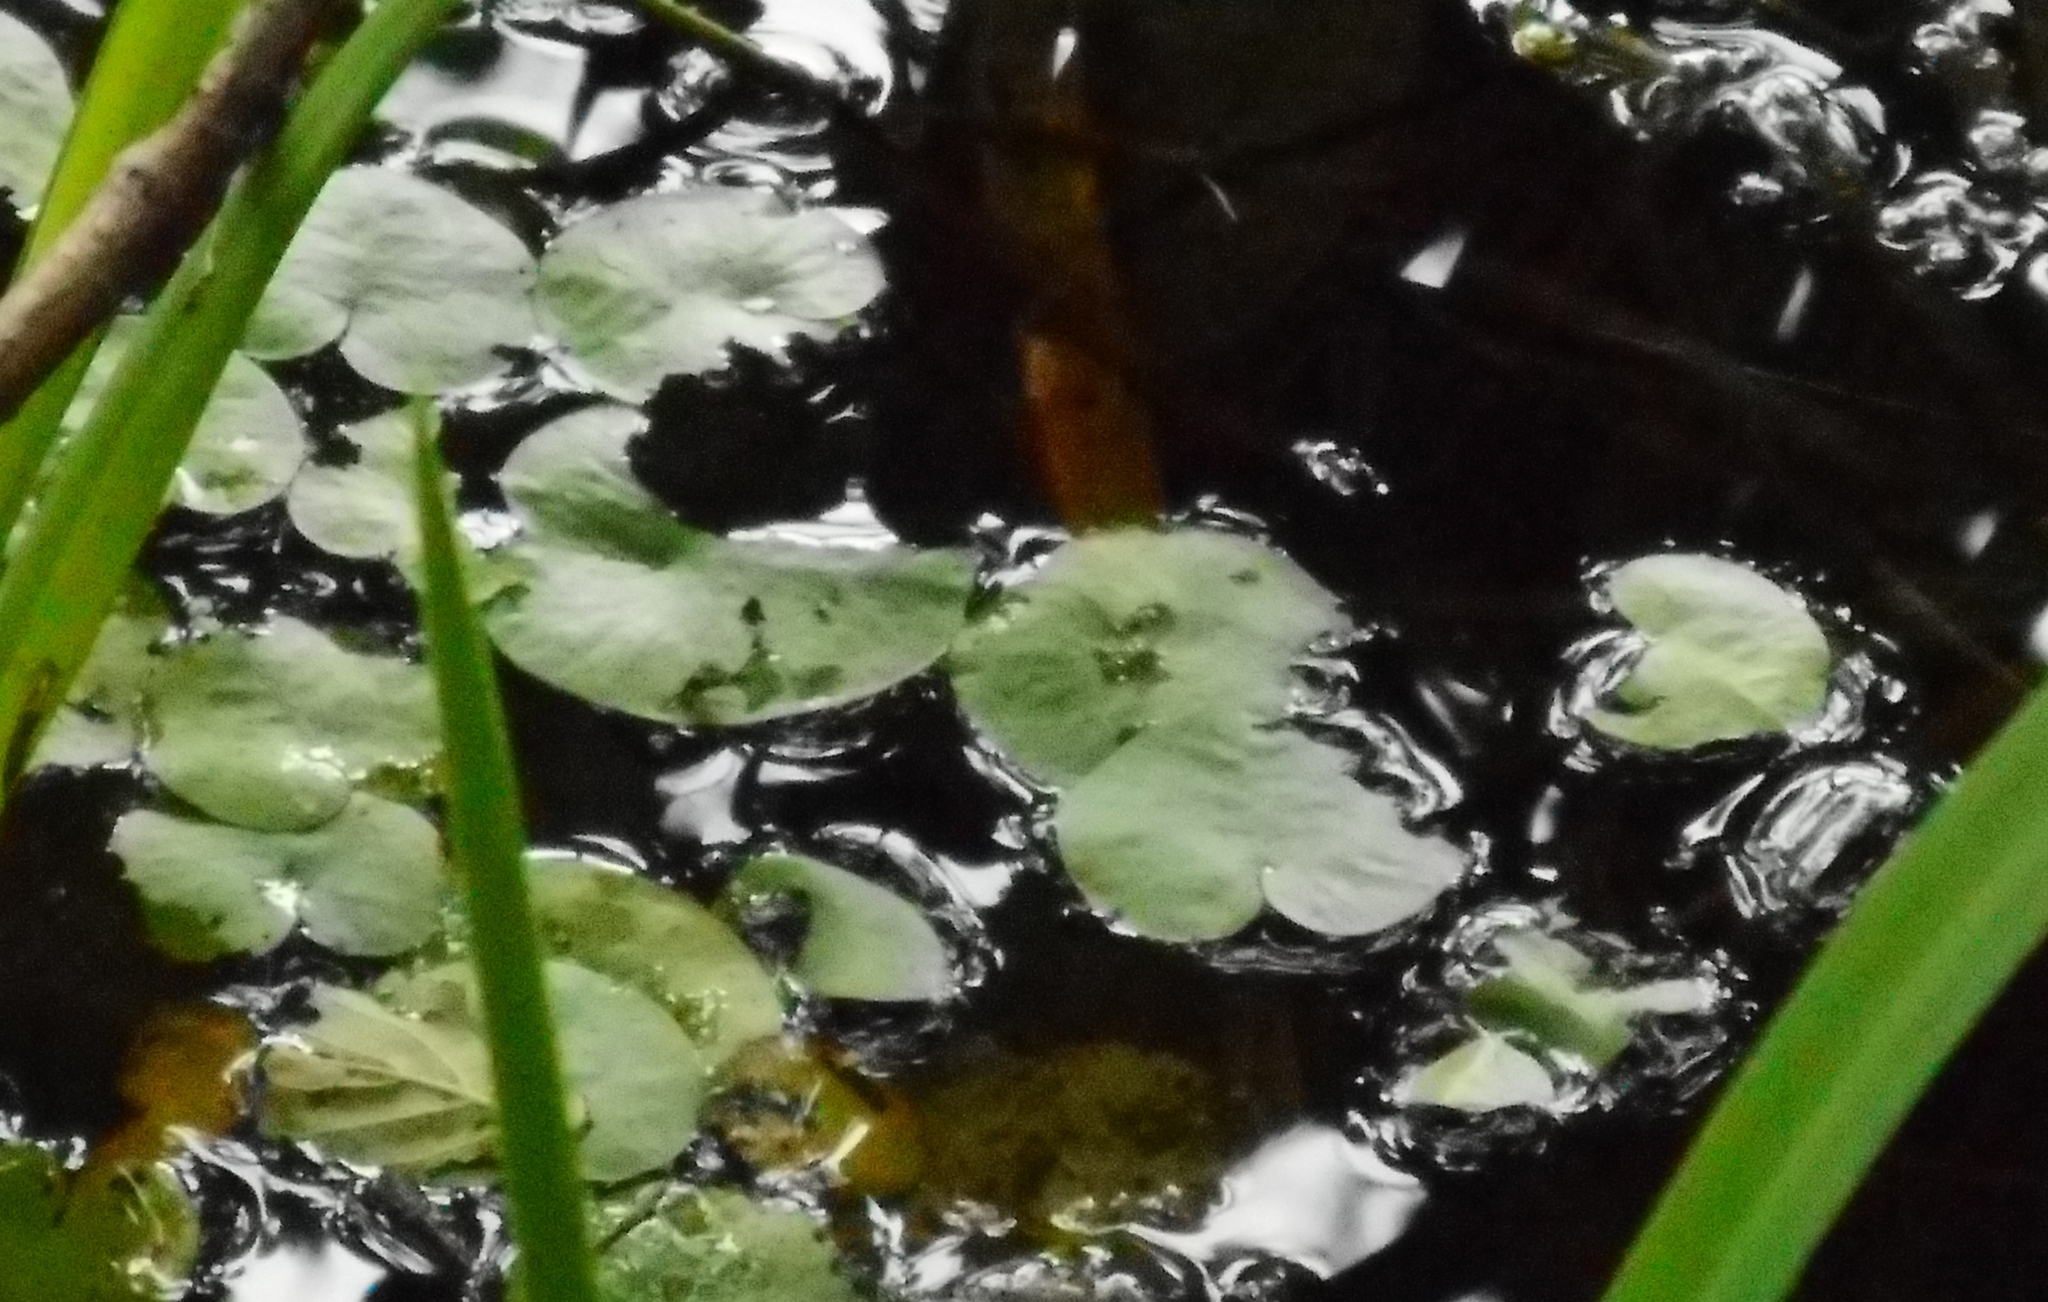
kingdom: Plantae
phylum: Tracheophyta
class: Liliopsida
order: Alismatales
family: Hydrocharitaceae
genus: Hydrocharis
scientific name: Hydrocharis morsus-ranae
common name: Frogbit
